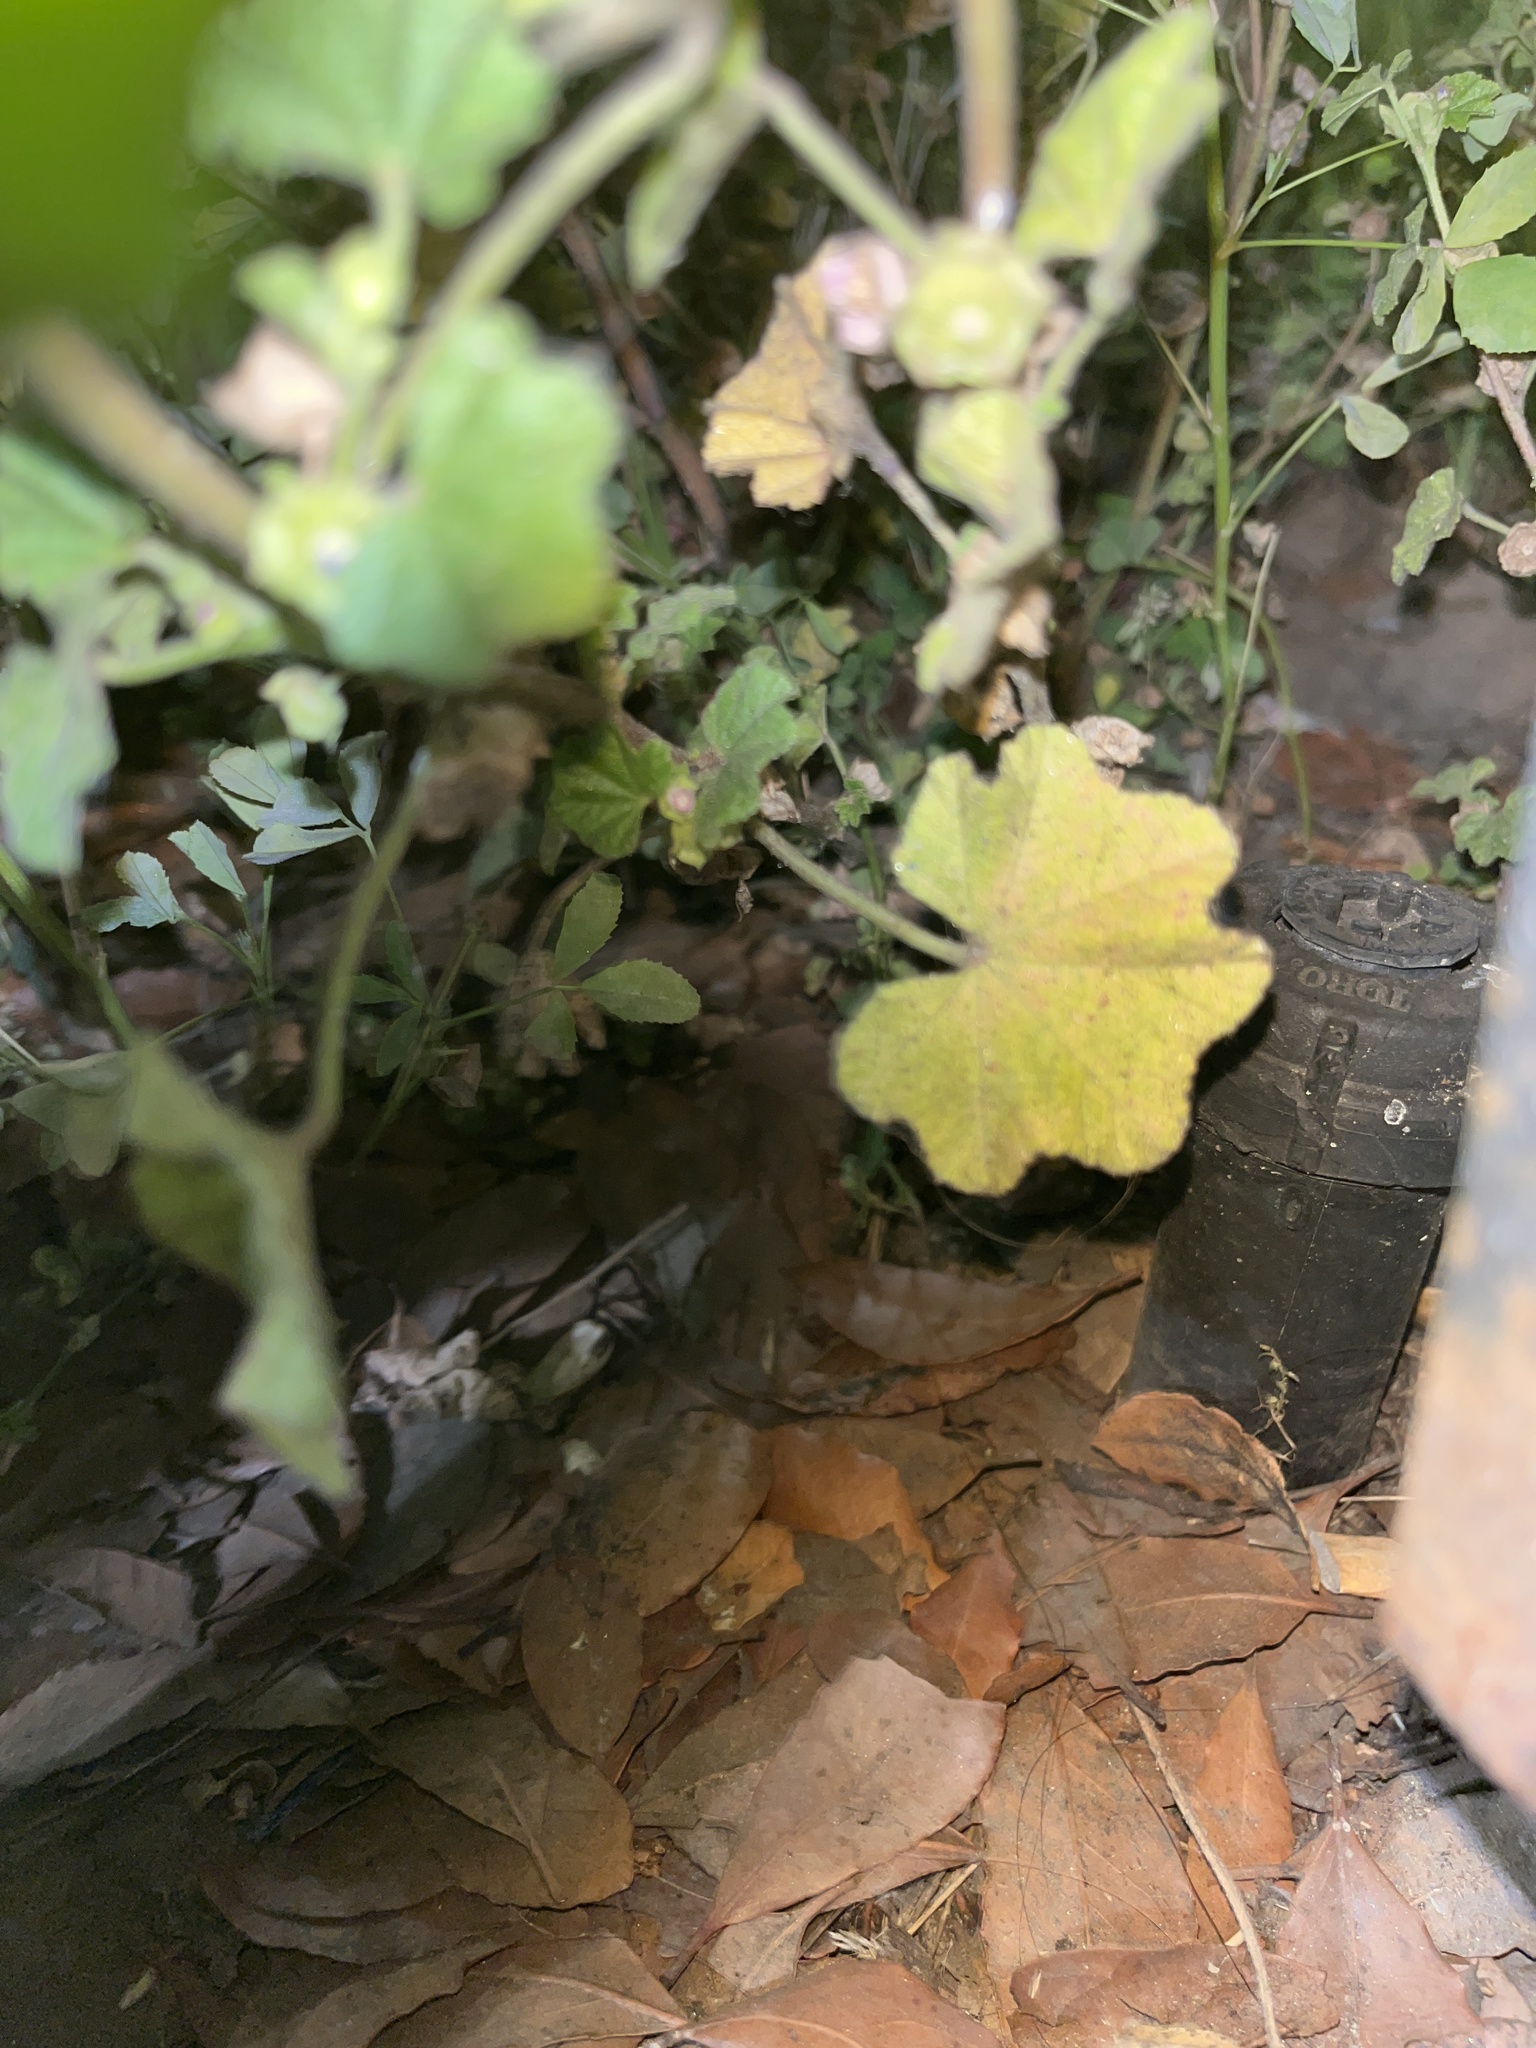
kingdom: Plantae
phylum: Tracheophyta
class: Magnoliopsida
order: Malvales
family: Malvaceae
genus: Malva
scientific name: Malva parviflora
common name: Least mallow
